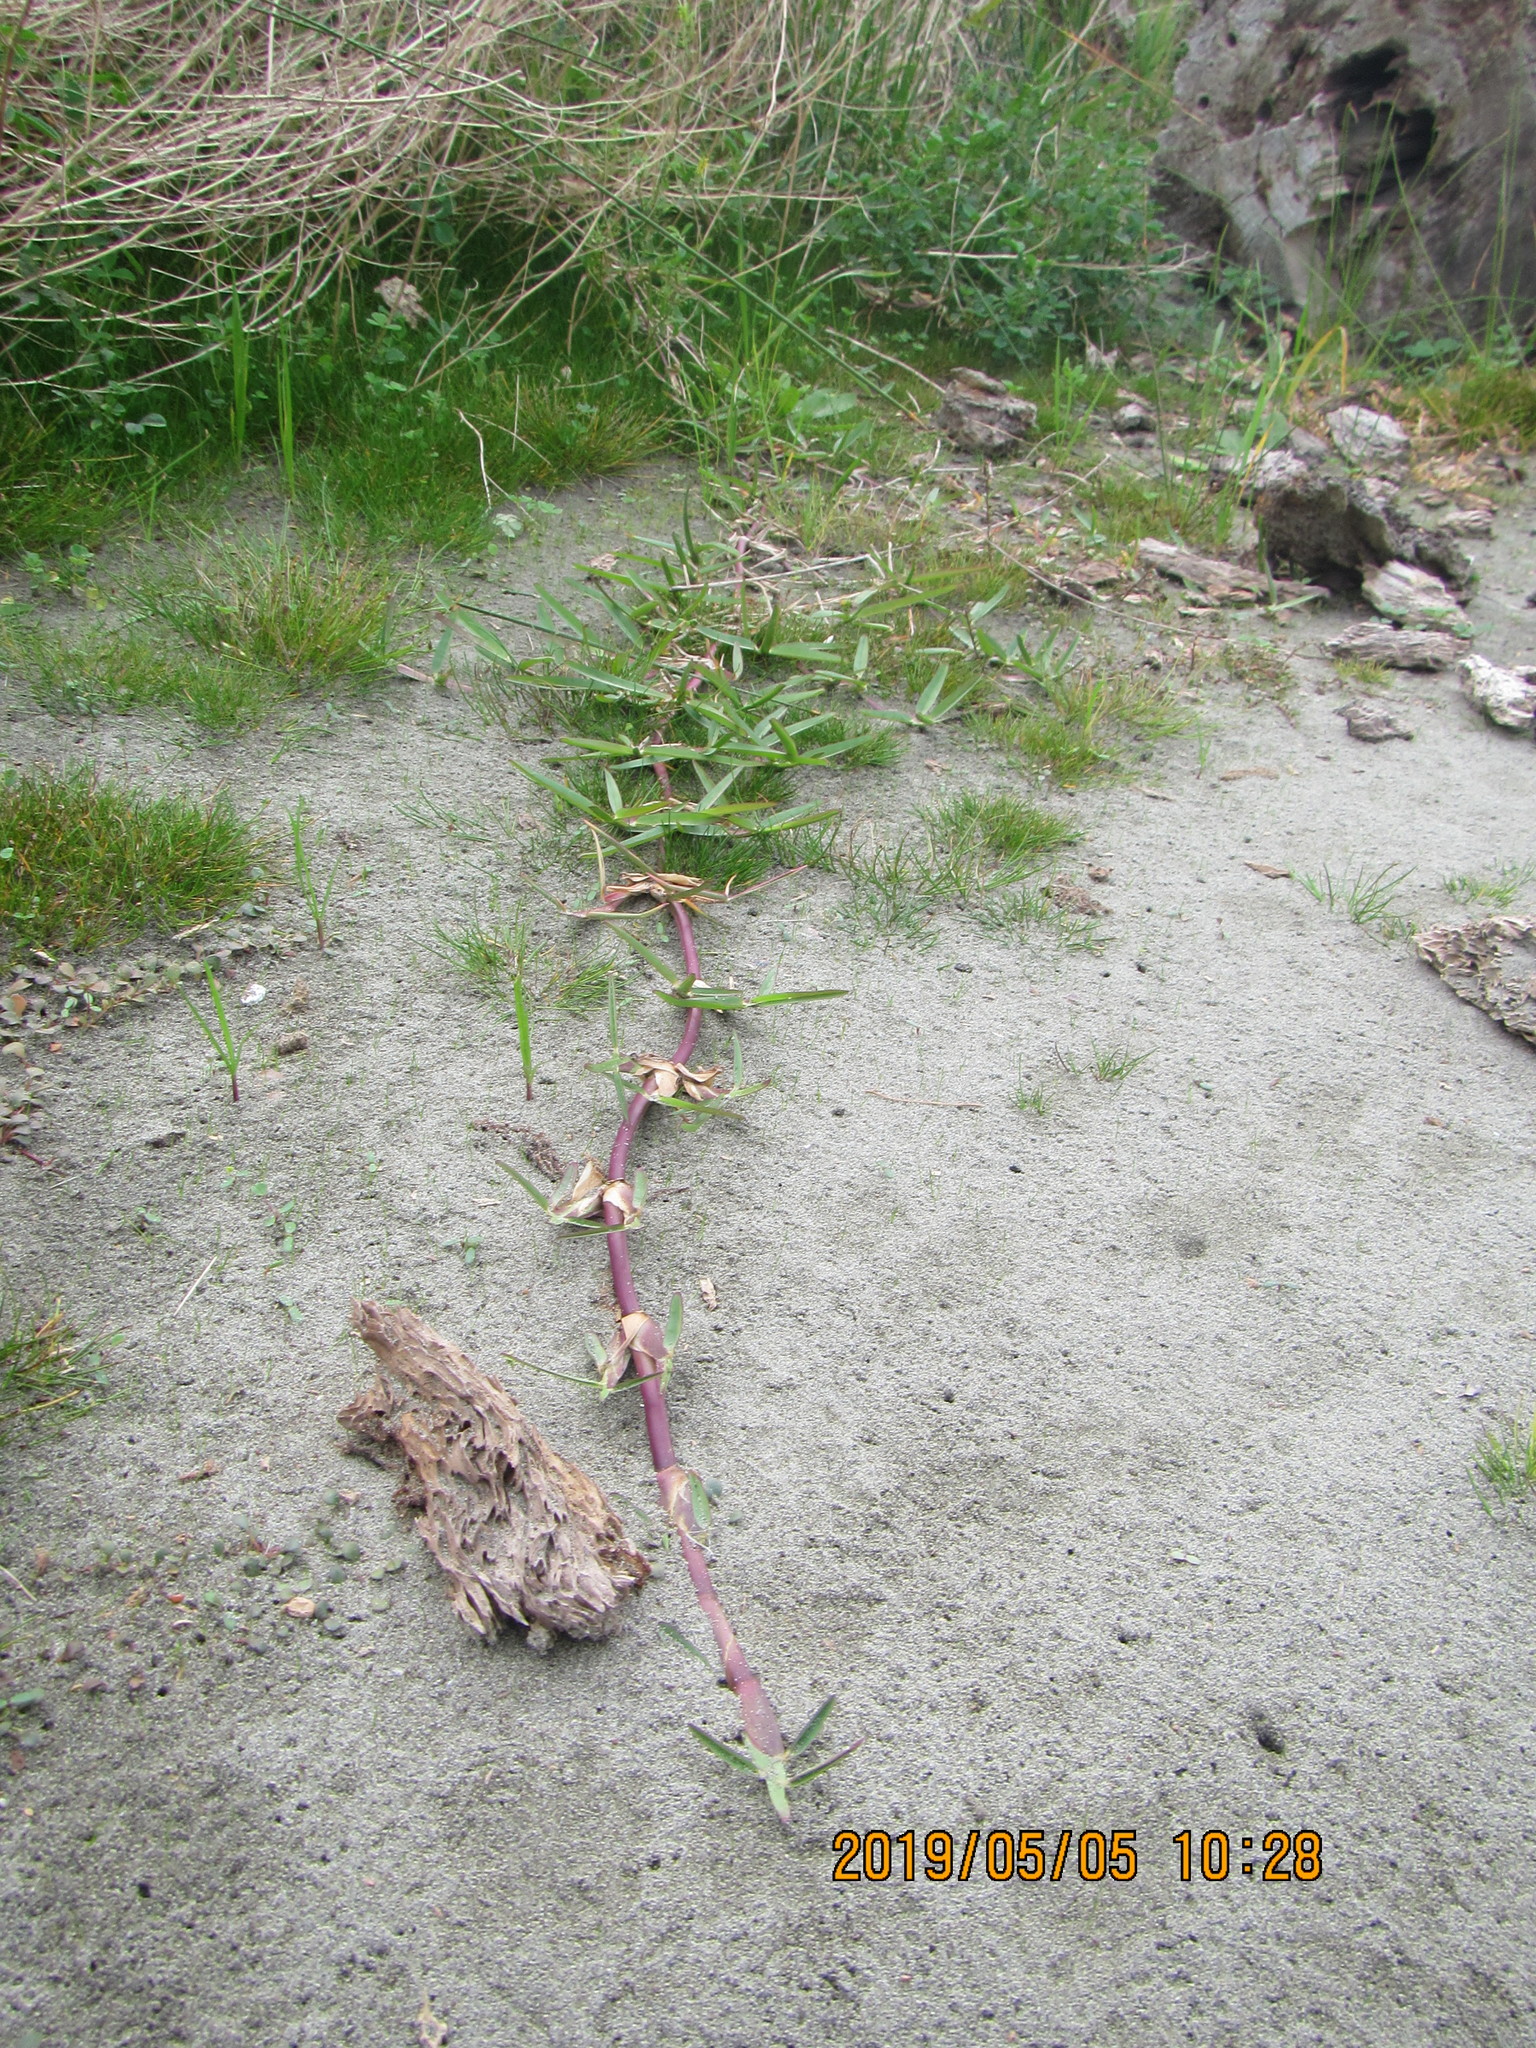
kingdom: Plantae
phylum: Tracheophyta
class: Liliopsida
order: Poales
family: Poaceae
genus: Stenotaphrum
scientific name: Stenotaphrum secundatum
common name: St. augustine grass
